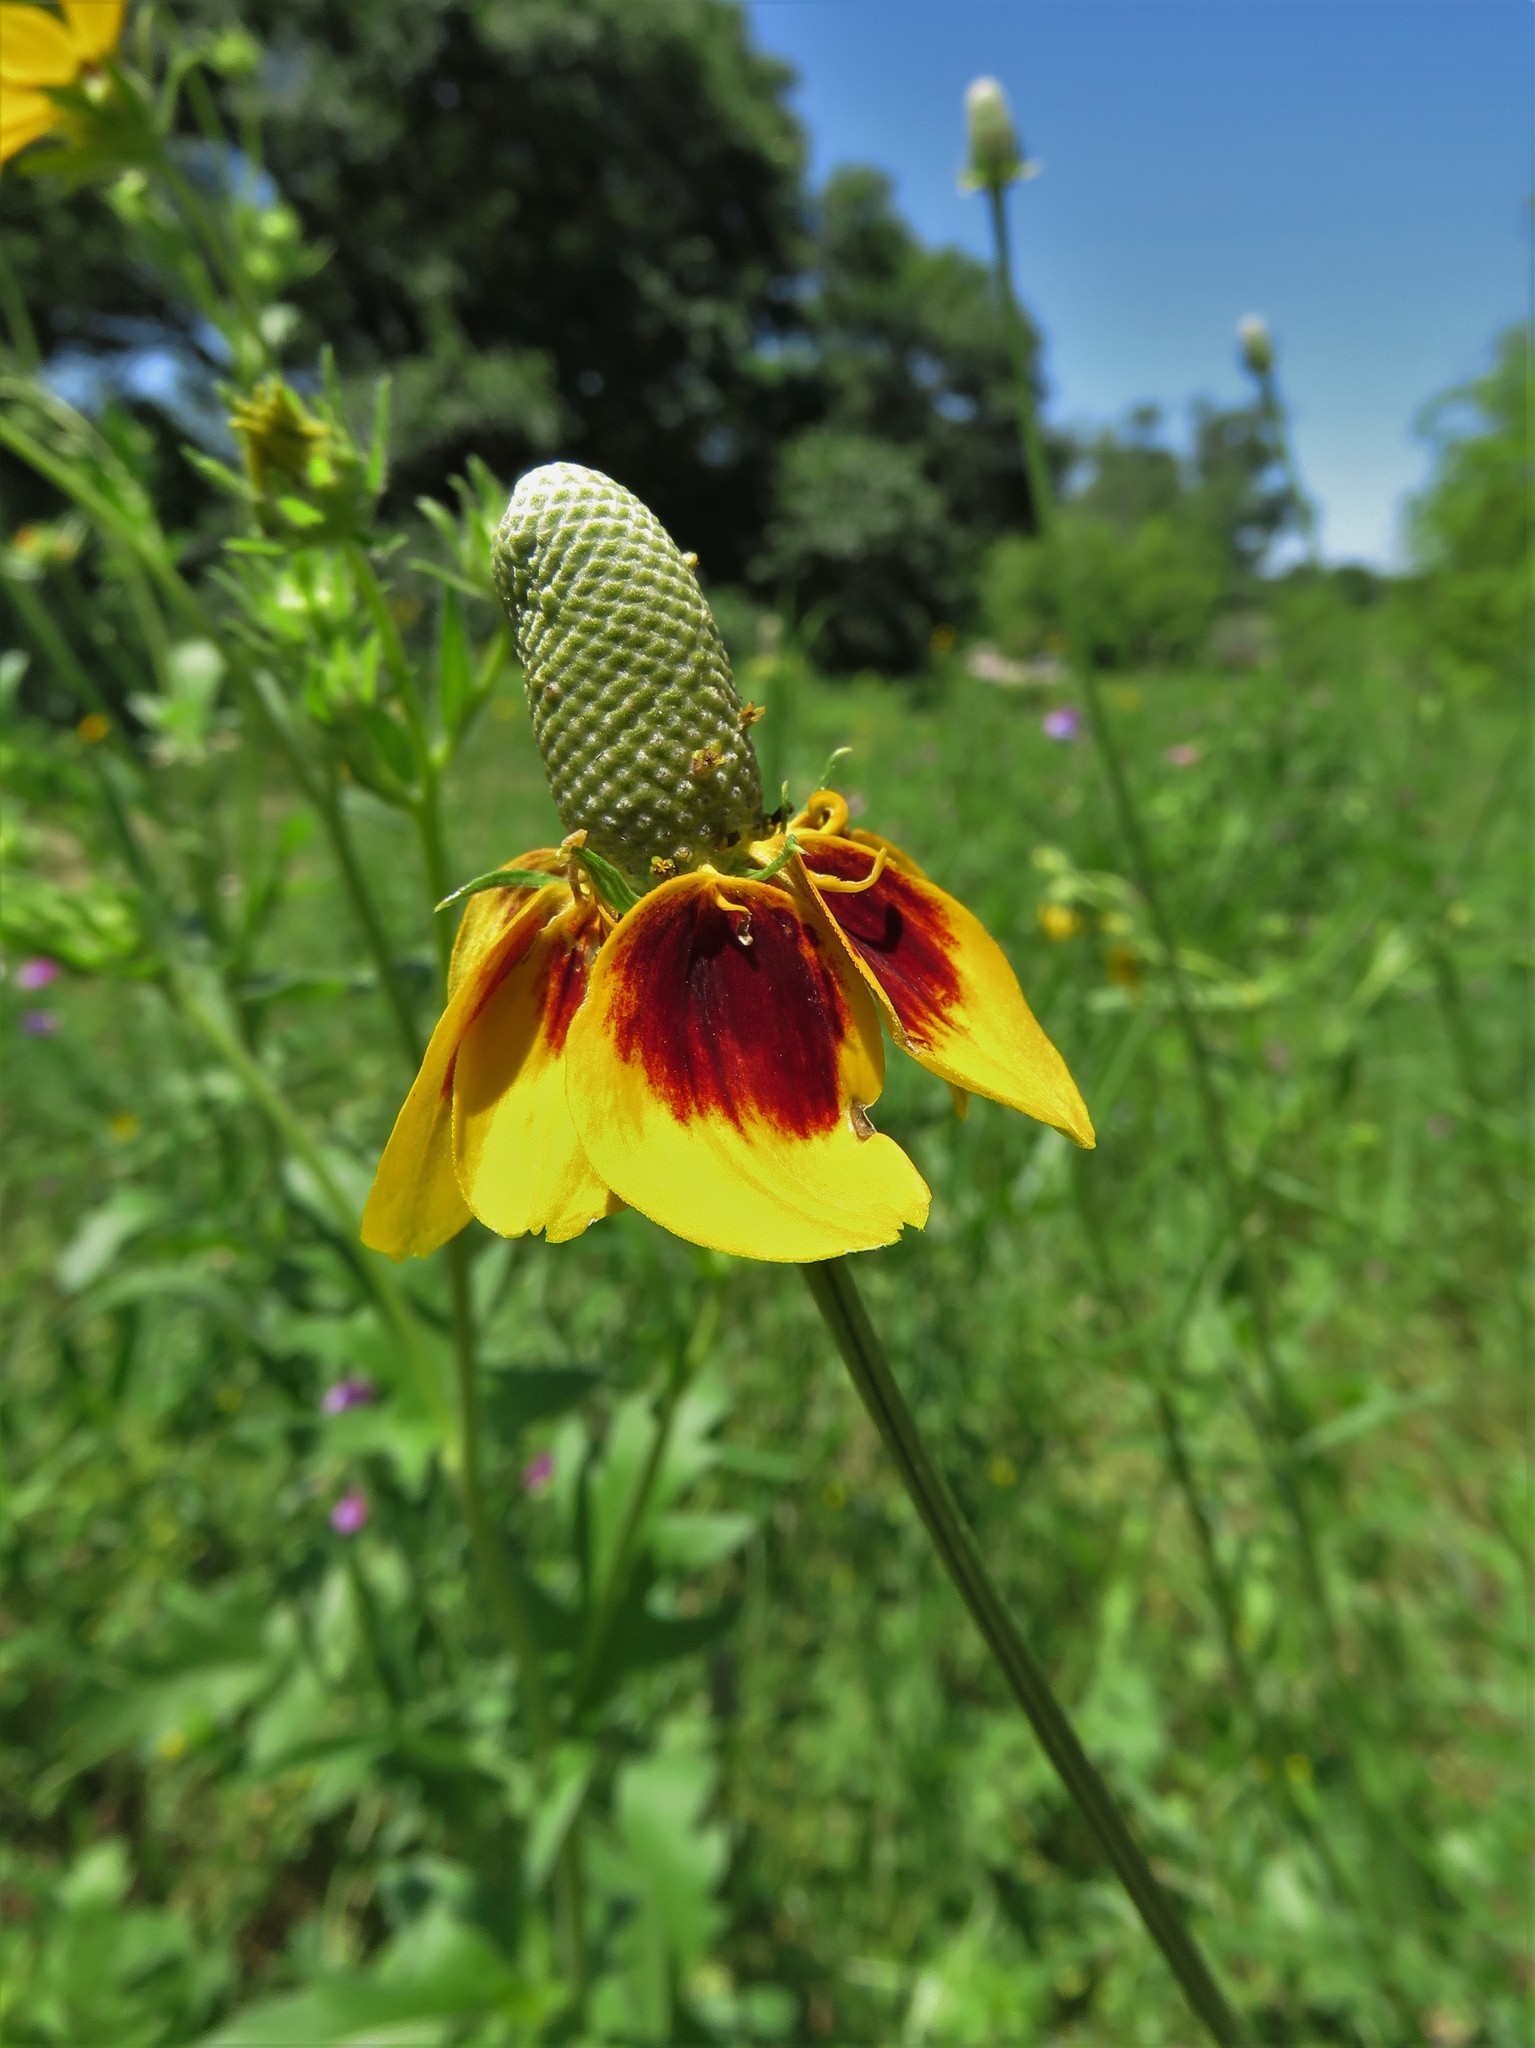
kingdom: Plantae
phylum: Tracheophyta
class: Magnoliopsida
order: Asterales
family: Asteraceae
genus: Ratibida
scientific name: Ratibida columnifera
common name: Prairie coneflower
